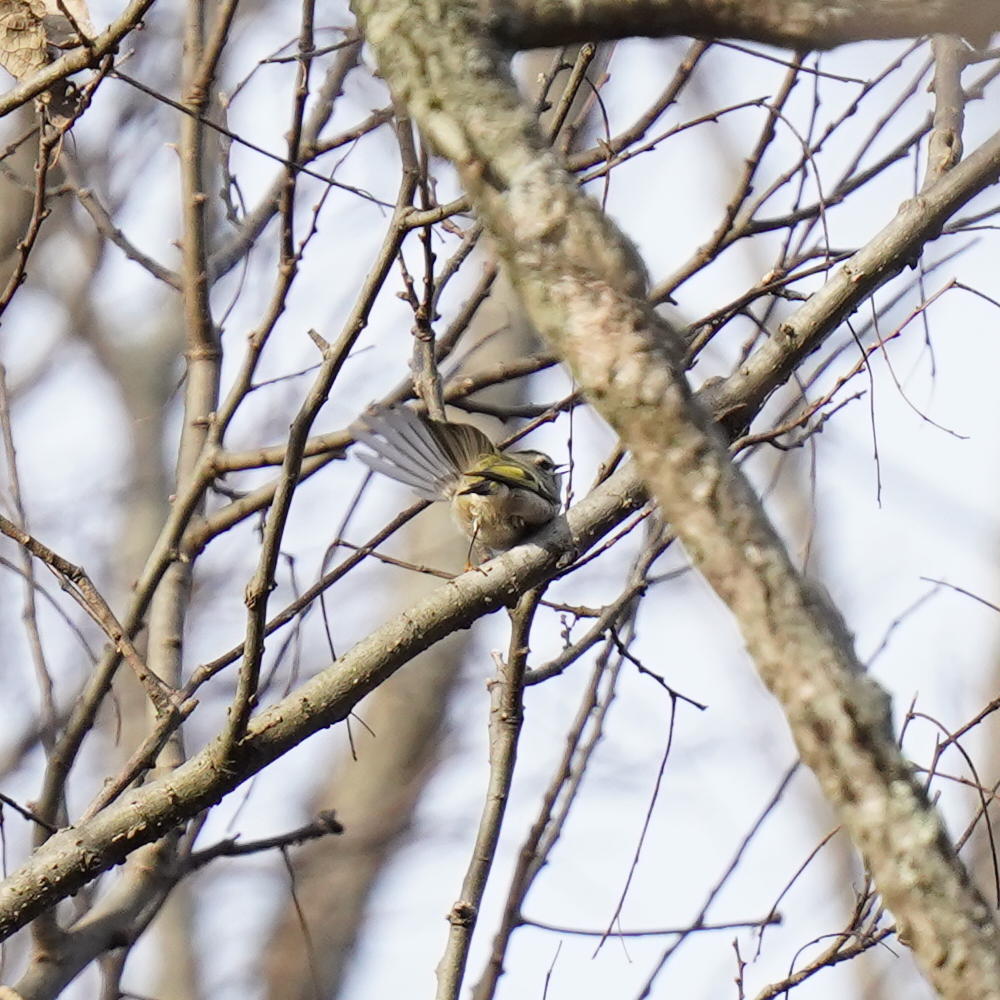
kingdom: Animalia
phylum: Chordata
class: Aves
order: Passeriformes
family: Regulidae
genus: Regulus
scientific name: Regulus satrapa
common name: Golden-crowned kinglet
